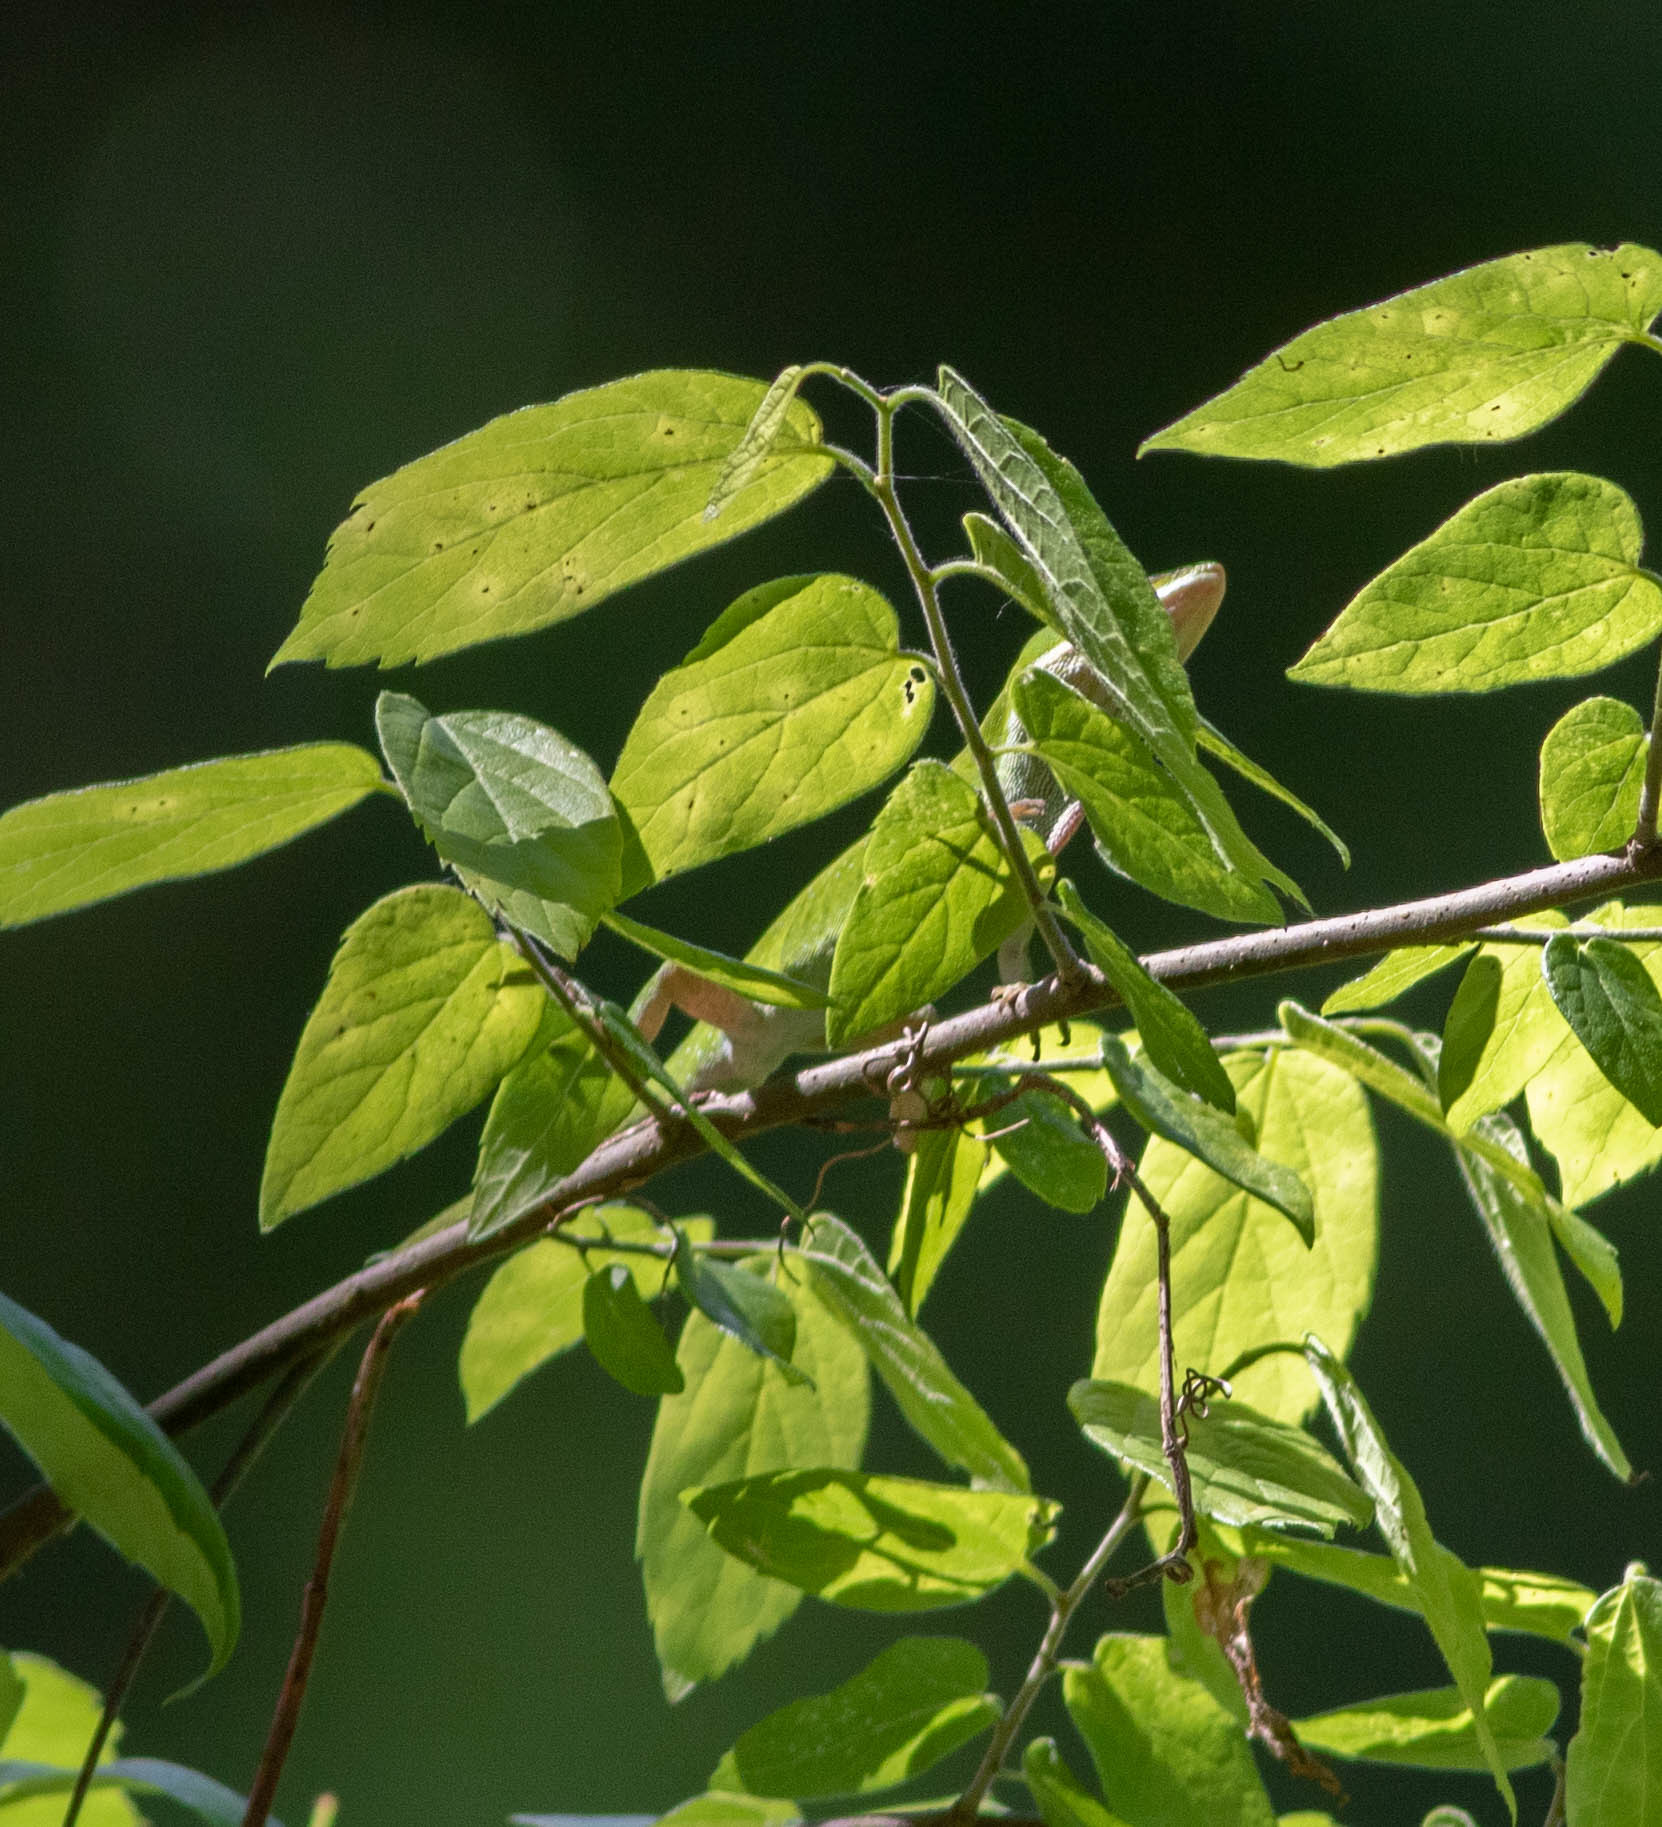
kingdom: Plantae
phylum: Tracheophyta
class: Magnoliopsida
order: Rosales
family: Cannabaceae
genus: Celtis
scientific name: Celtis laevigata
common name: Sugarberry
